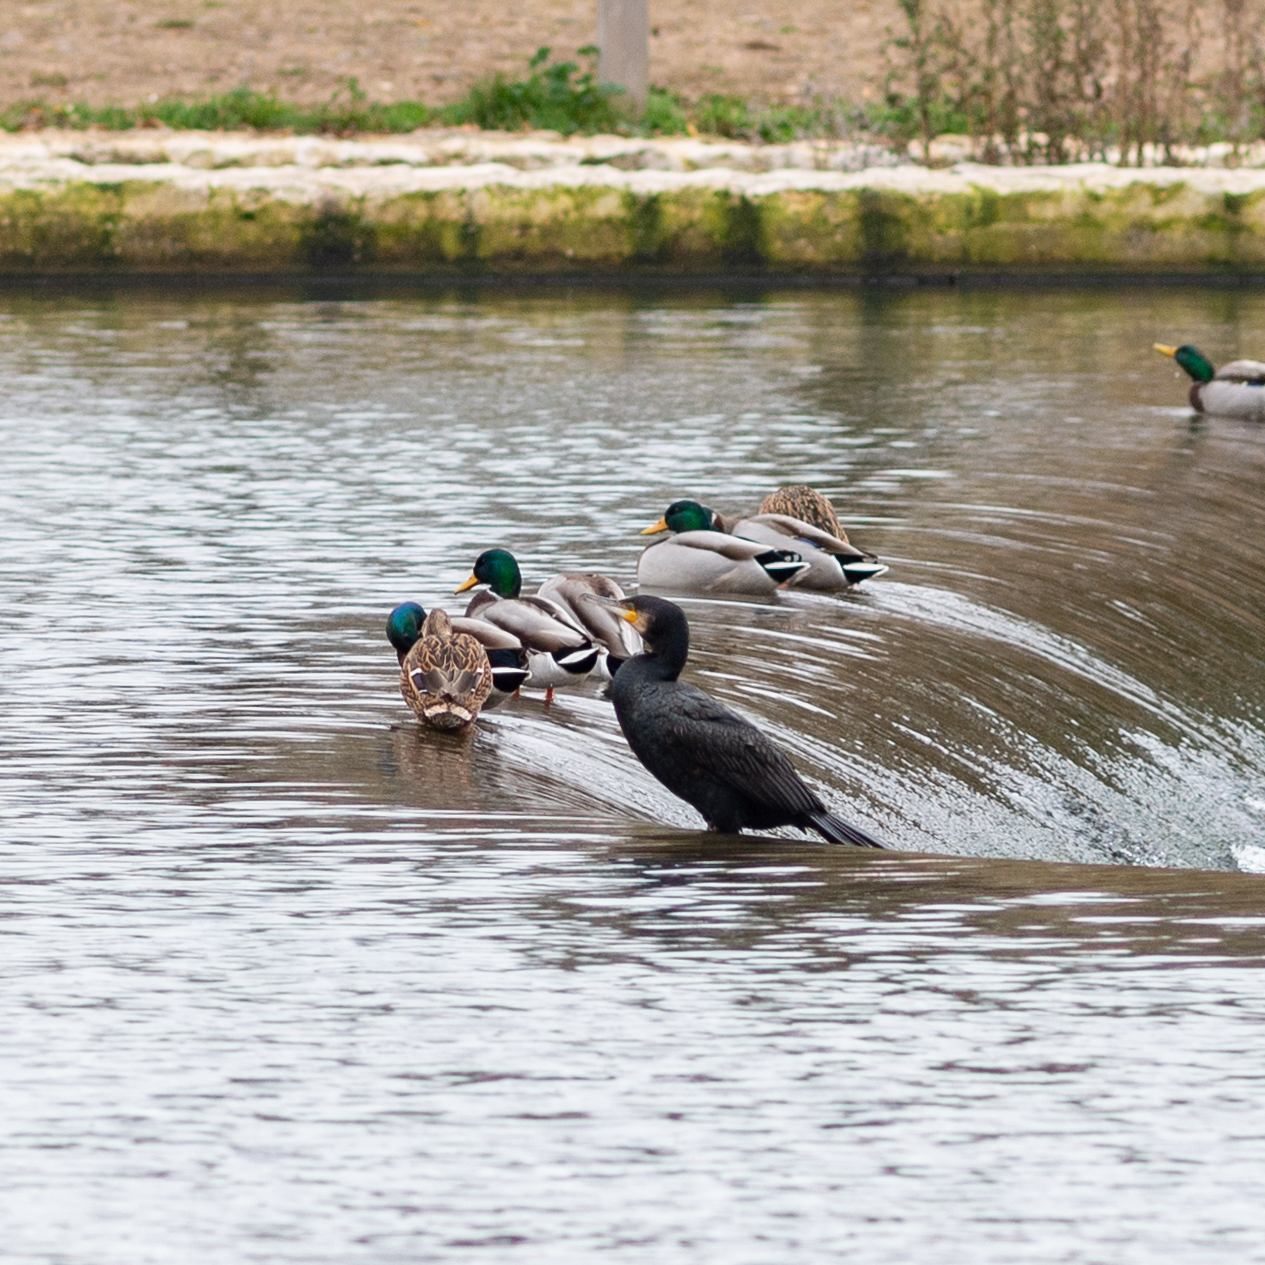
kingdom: Animalia
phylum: Chordata
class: Aves
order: Suliformes
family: Phalacrocoracidae
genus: Phalacrocorax
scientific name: Phalacrocorax carbo
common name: Great cormorant
